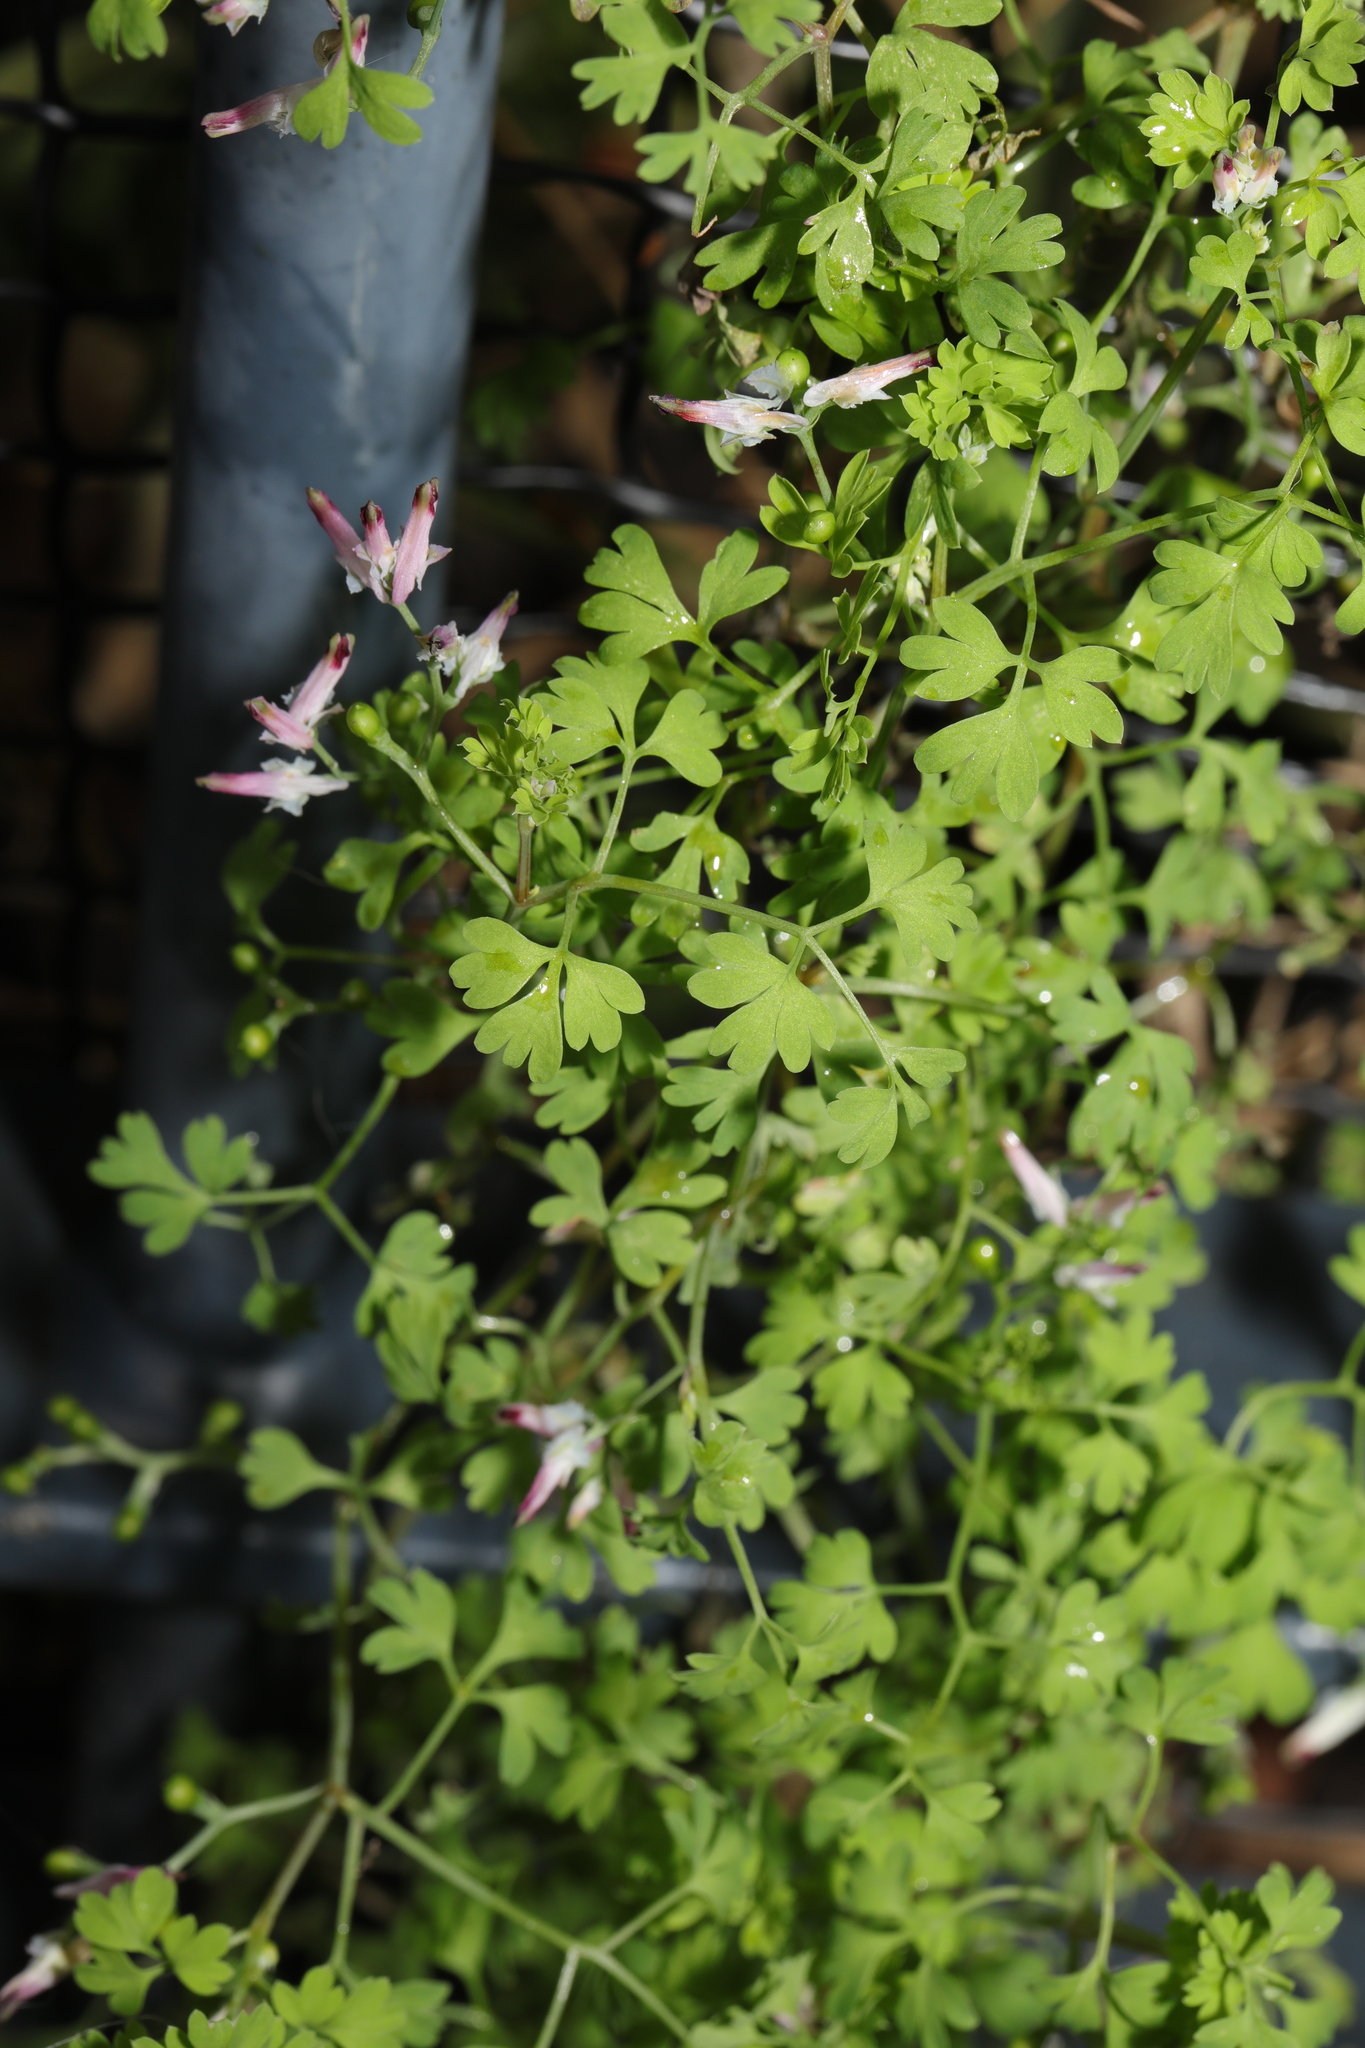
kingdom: Plantae
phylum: Tracheophyta
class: Magnoliopsida
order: Ranunculales
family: Papaveraceae
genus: Fumaria
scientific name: Fumaria muralis
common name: Common ramping-fumitory
